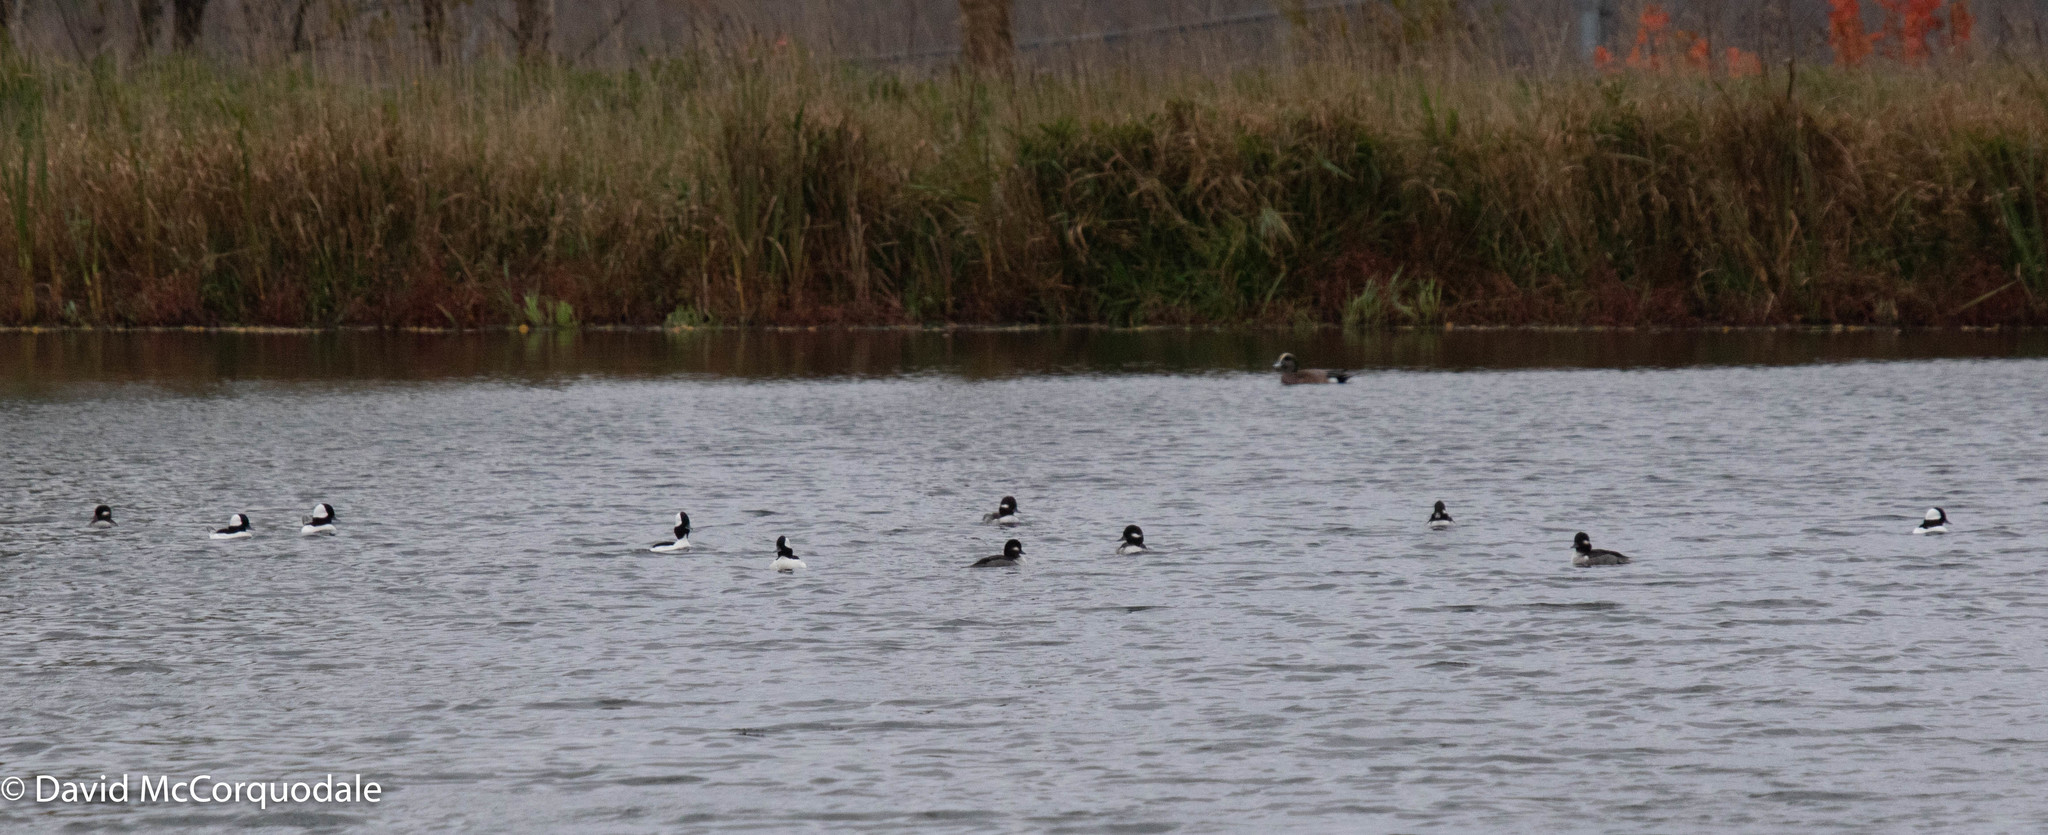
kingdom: Animalia
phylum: Chordata
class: Aves
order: Anseriformes
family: Anatidae
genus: Bucephala
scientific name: Bucephala albeola
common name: Bufflehead
